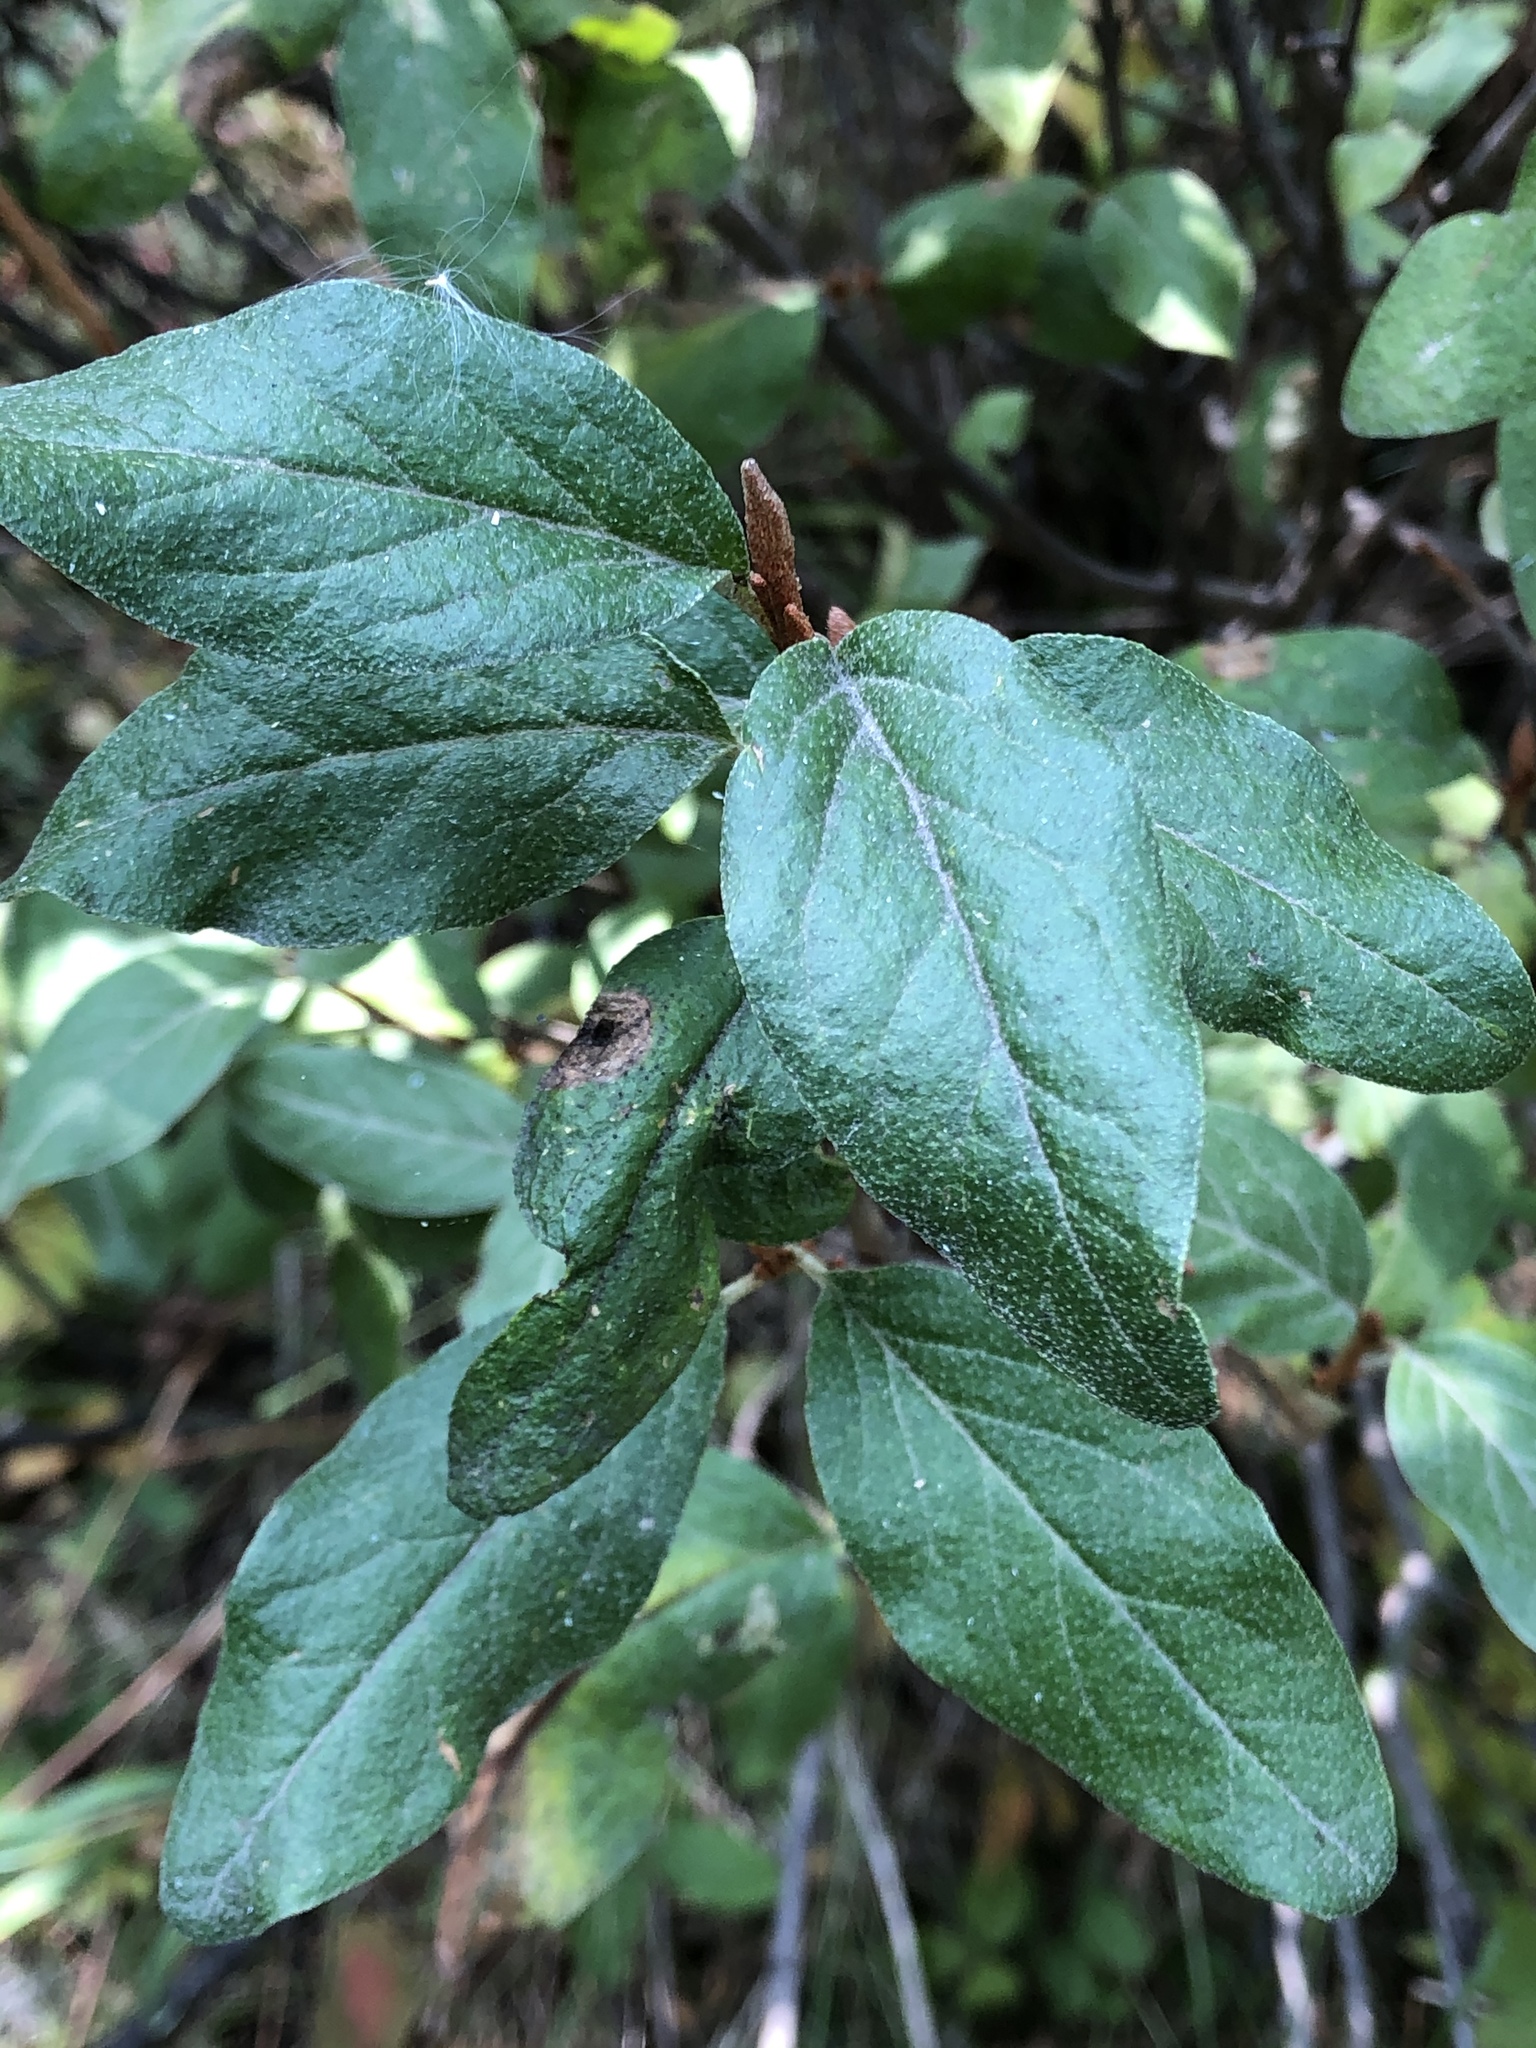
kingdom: Plantae
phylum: Tracheophyta
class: Magnoliopsida
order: Rosales
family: Elaeagnaceae
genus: Shepherdia
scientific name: Shepherdia canadensis
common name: Soapberry
